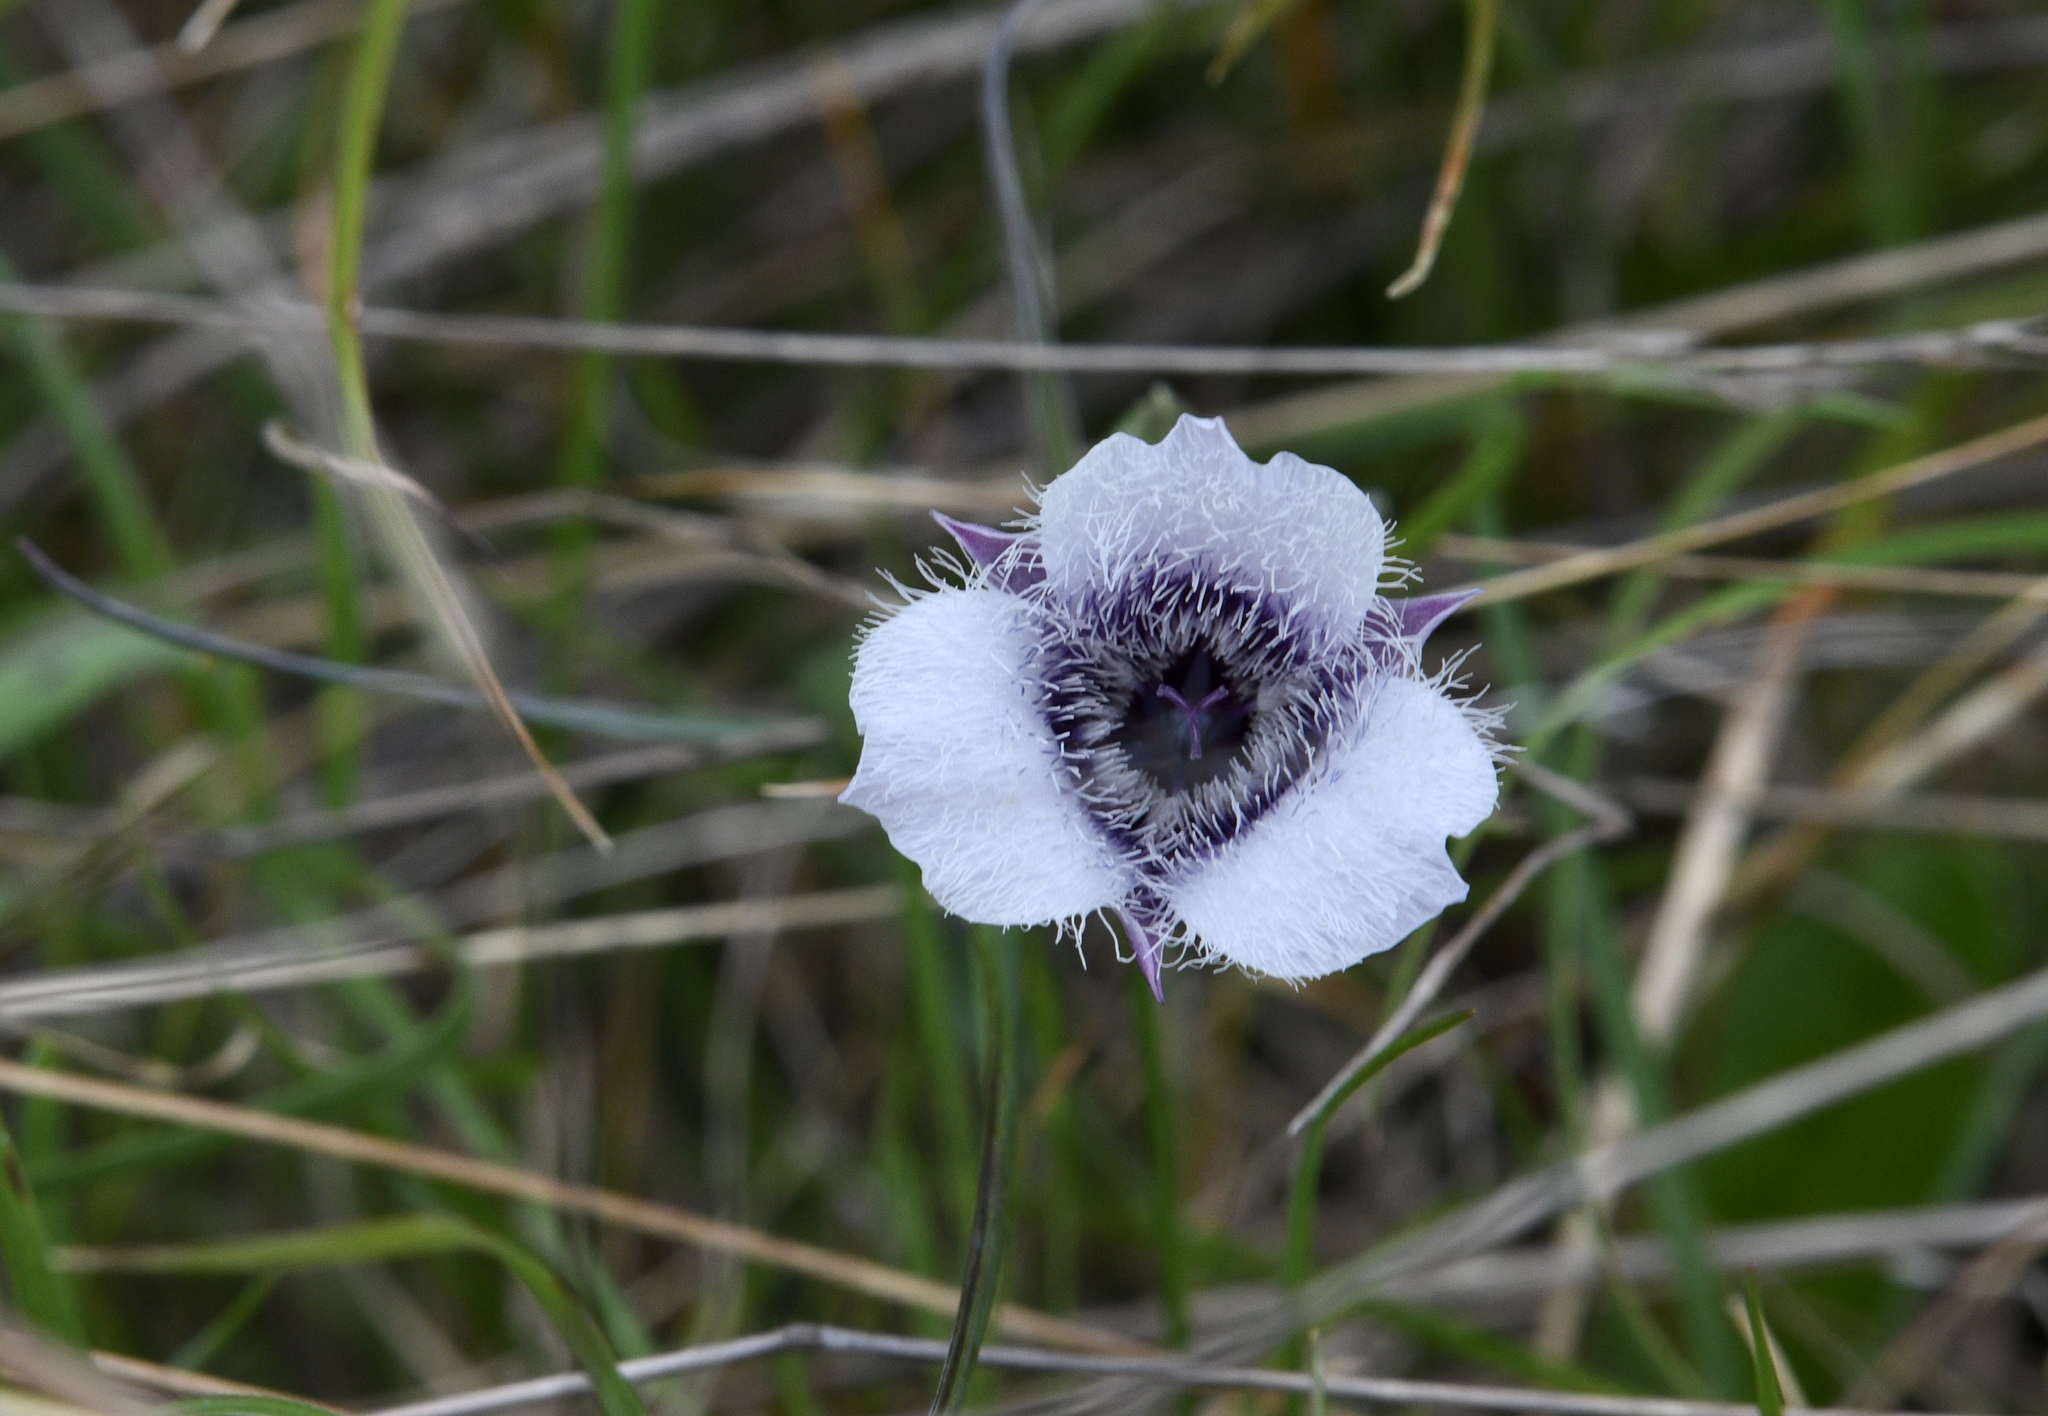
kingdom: Plantae
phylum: Tracheophyta
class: Liliopsida
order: Liliales
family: Liliaceae
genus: Calochortus
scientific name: Calochortus tolmiei
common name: Pussy-ears
